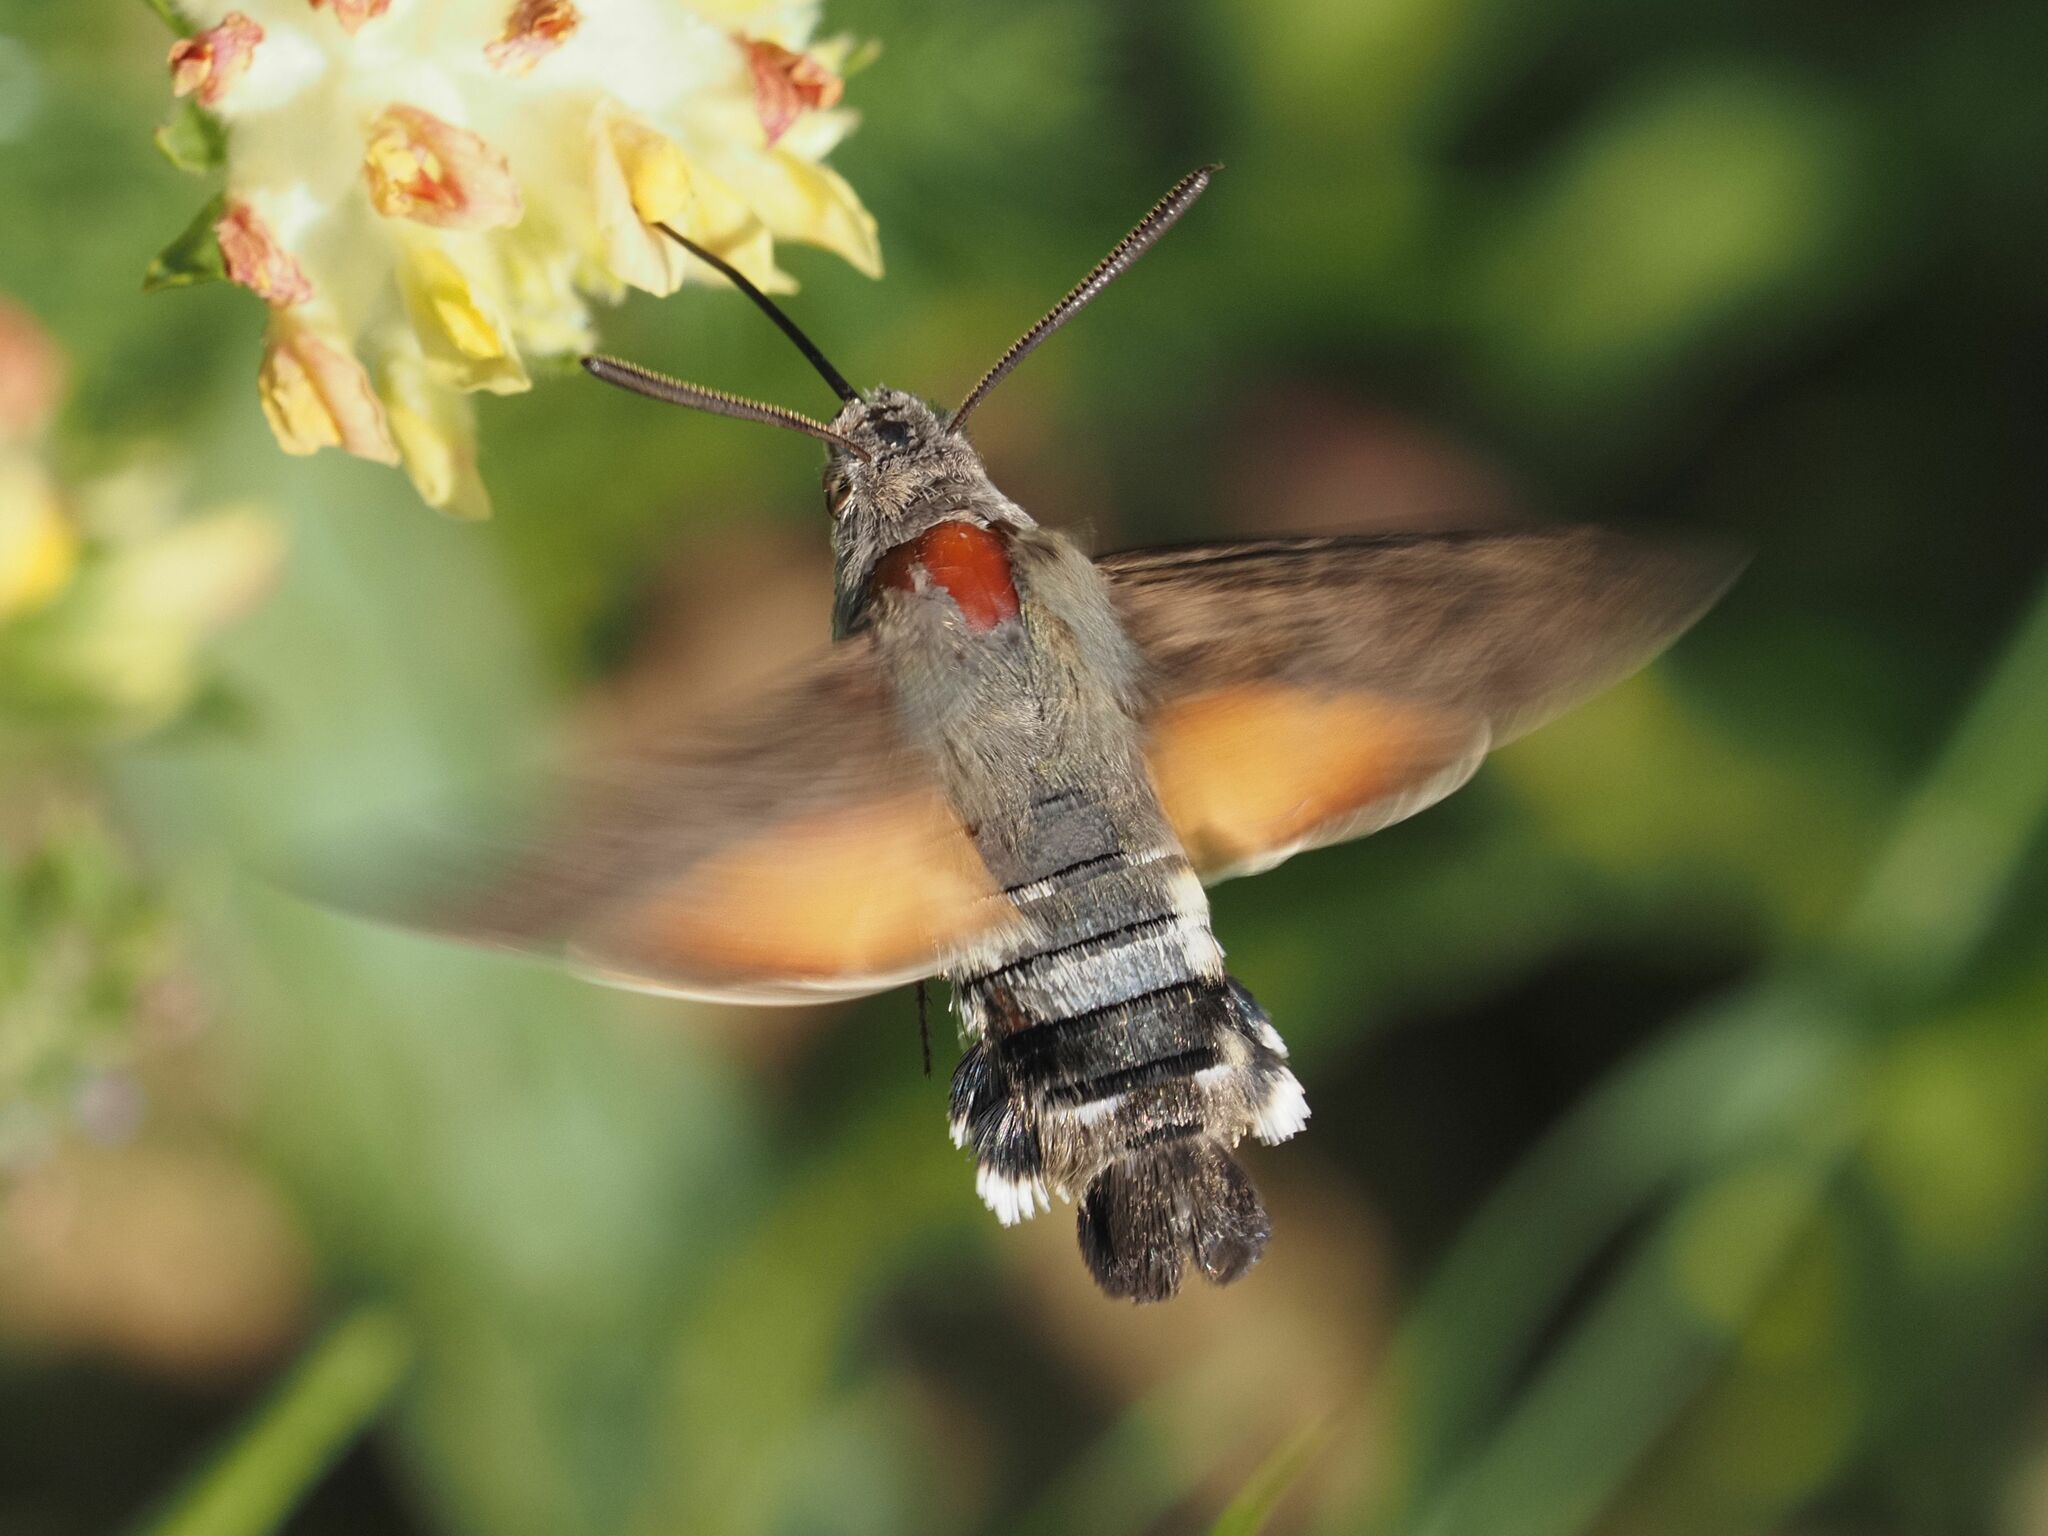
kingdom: Animalia
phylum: Arthropoda
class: Insecta
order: Lepidoptera
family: Sphingidae
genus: Macroglossum
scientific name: Macroglossum stellatarum
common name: Humming-bird hawk-moth
